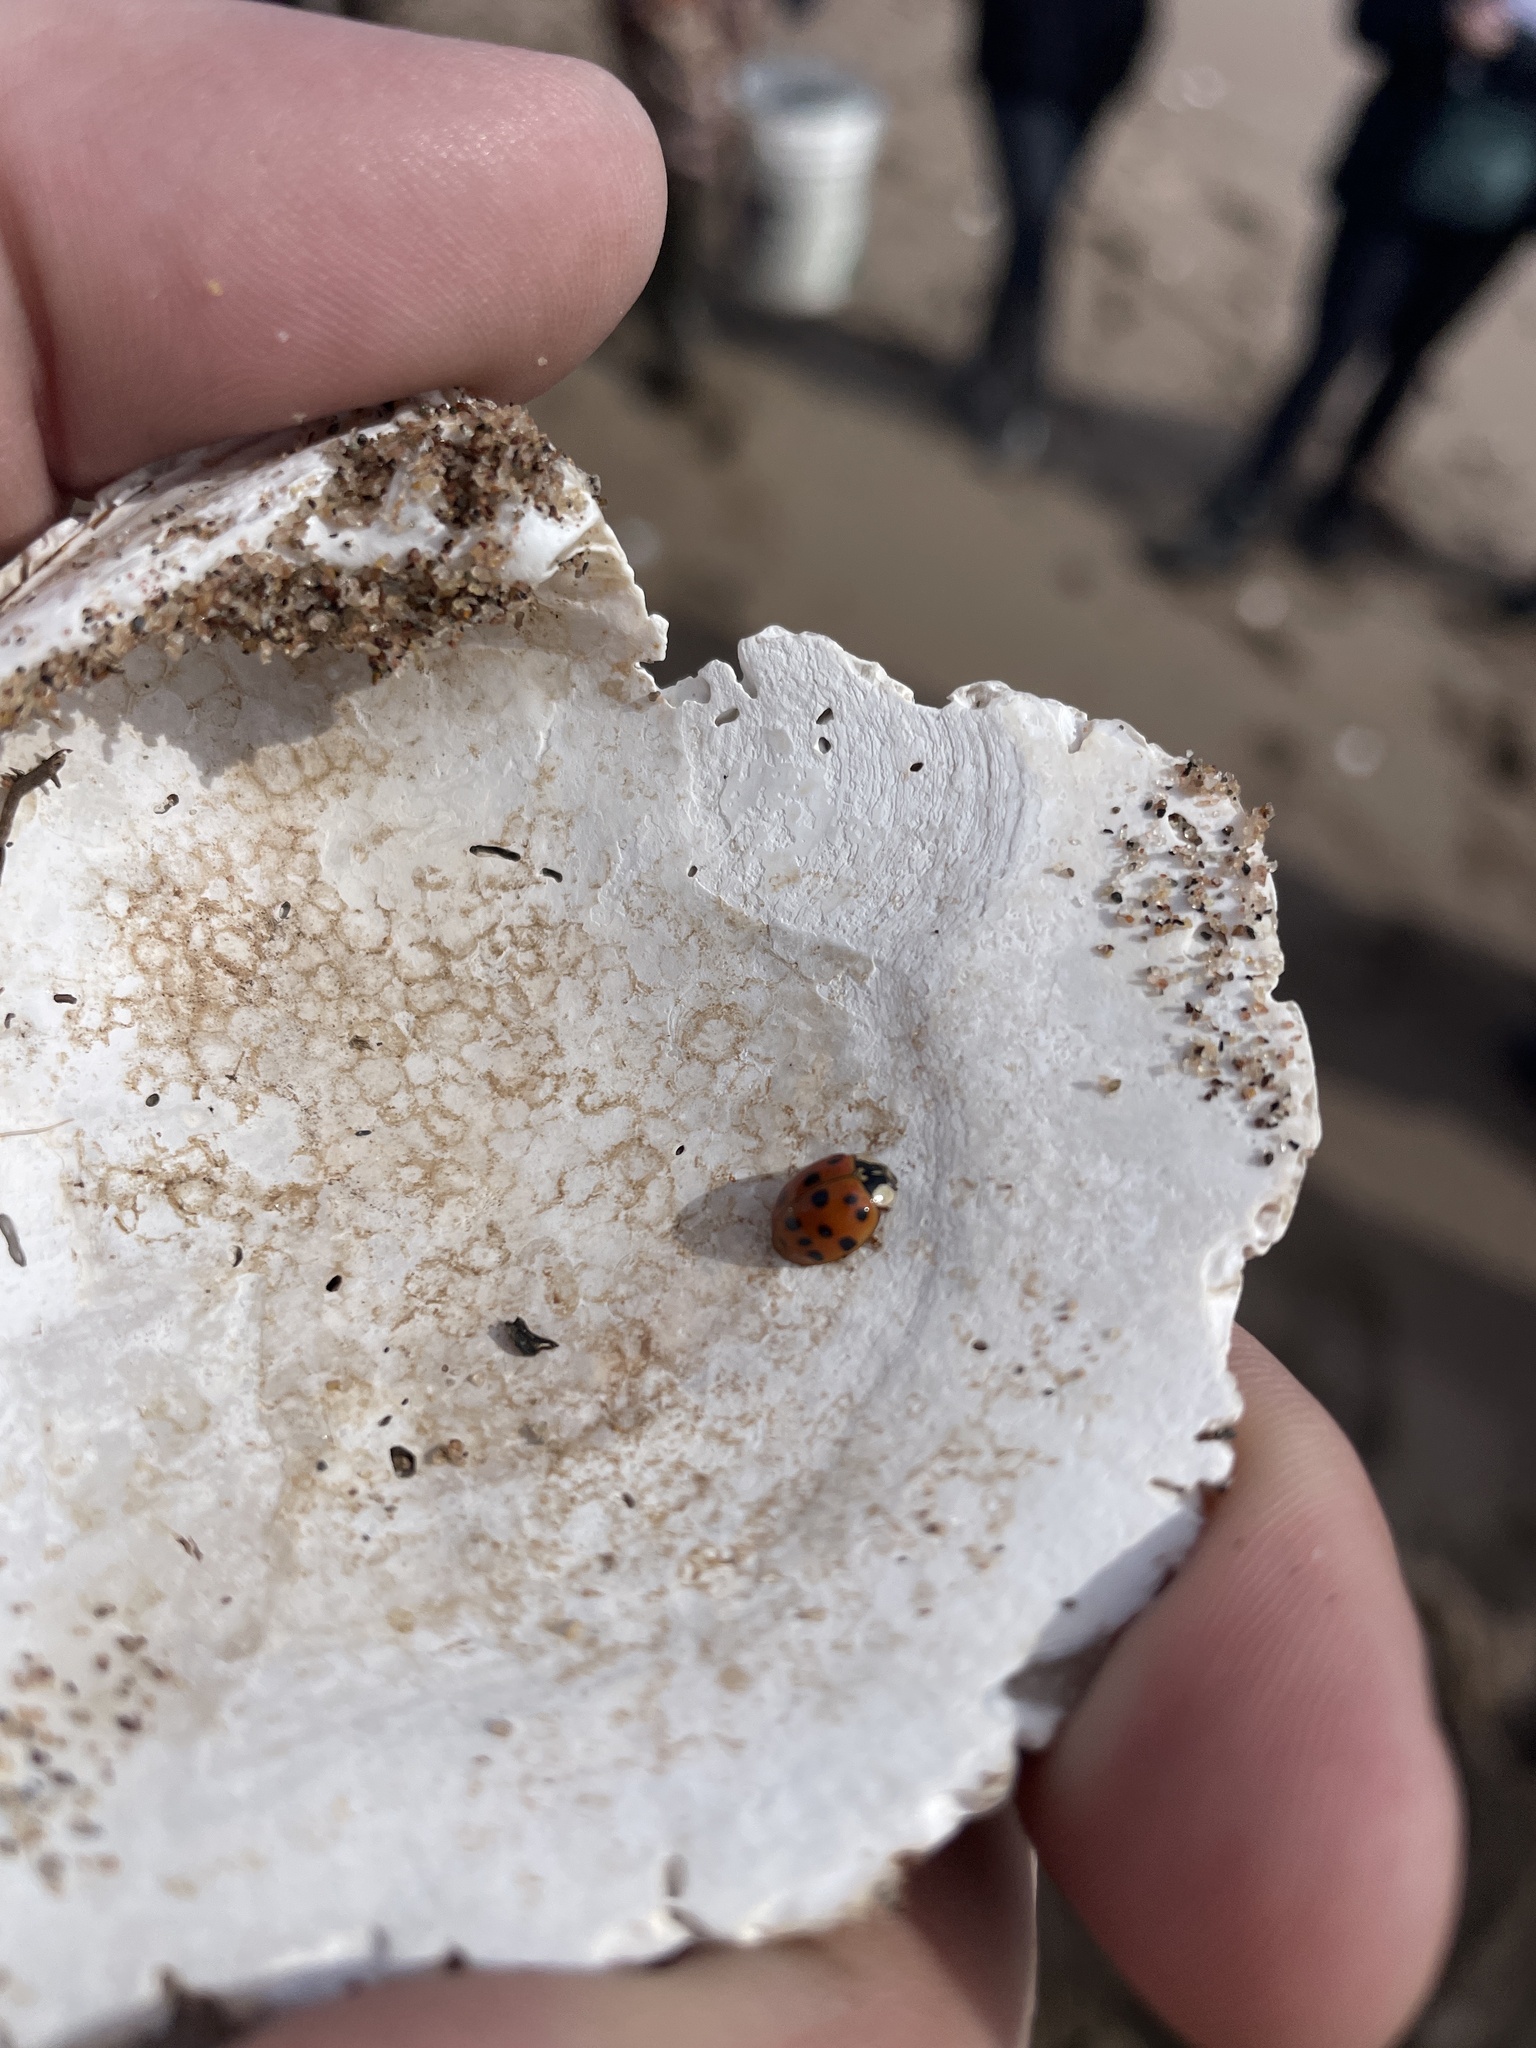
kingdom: Animalia
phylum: Arthropoda
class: Insecta
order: Coleoptera
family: Coccinellidae
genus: Harmonia
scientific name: Harmonia axyridis
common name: Harlequin ladybird
